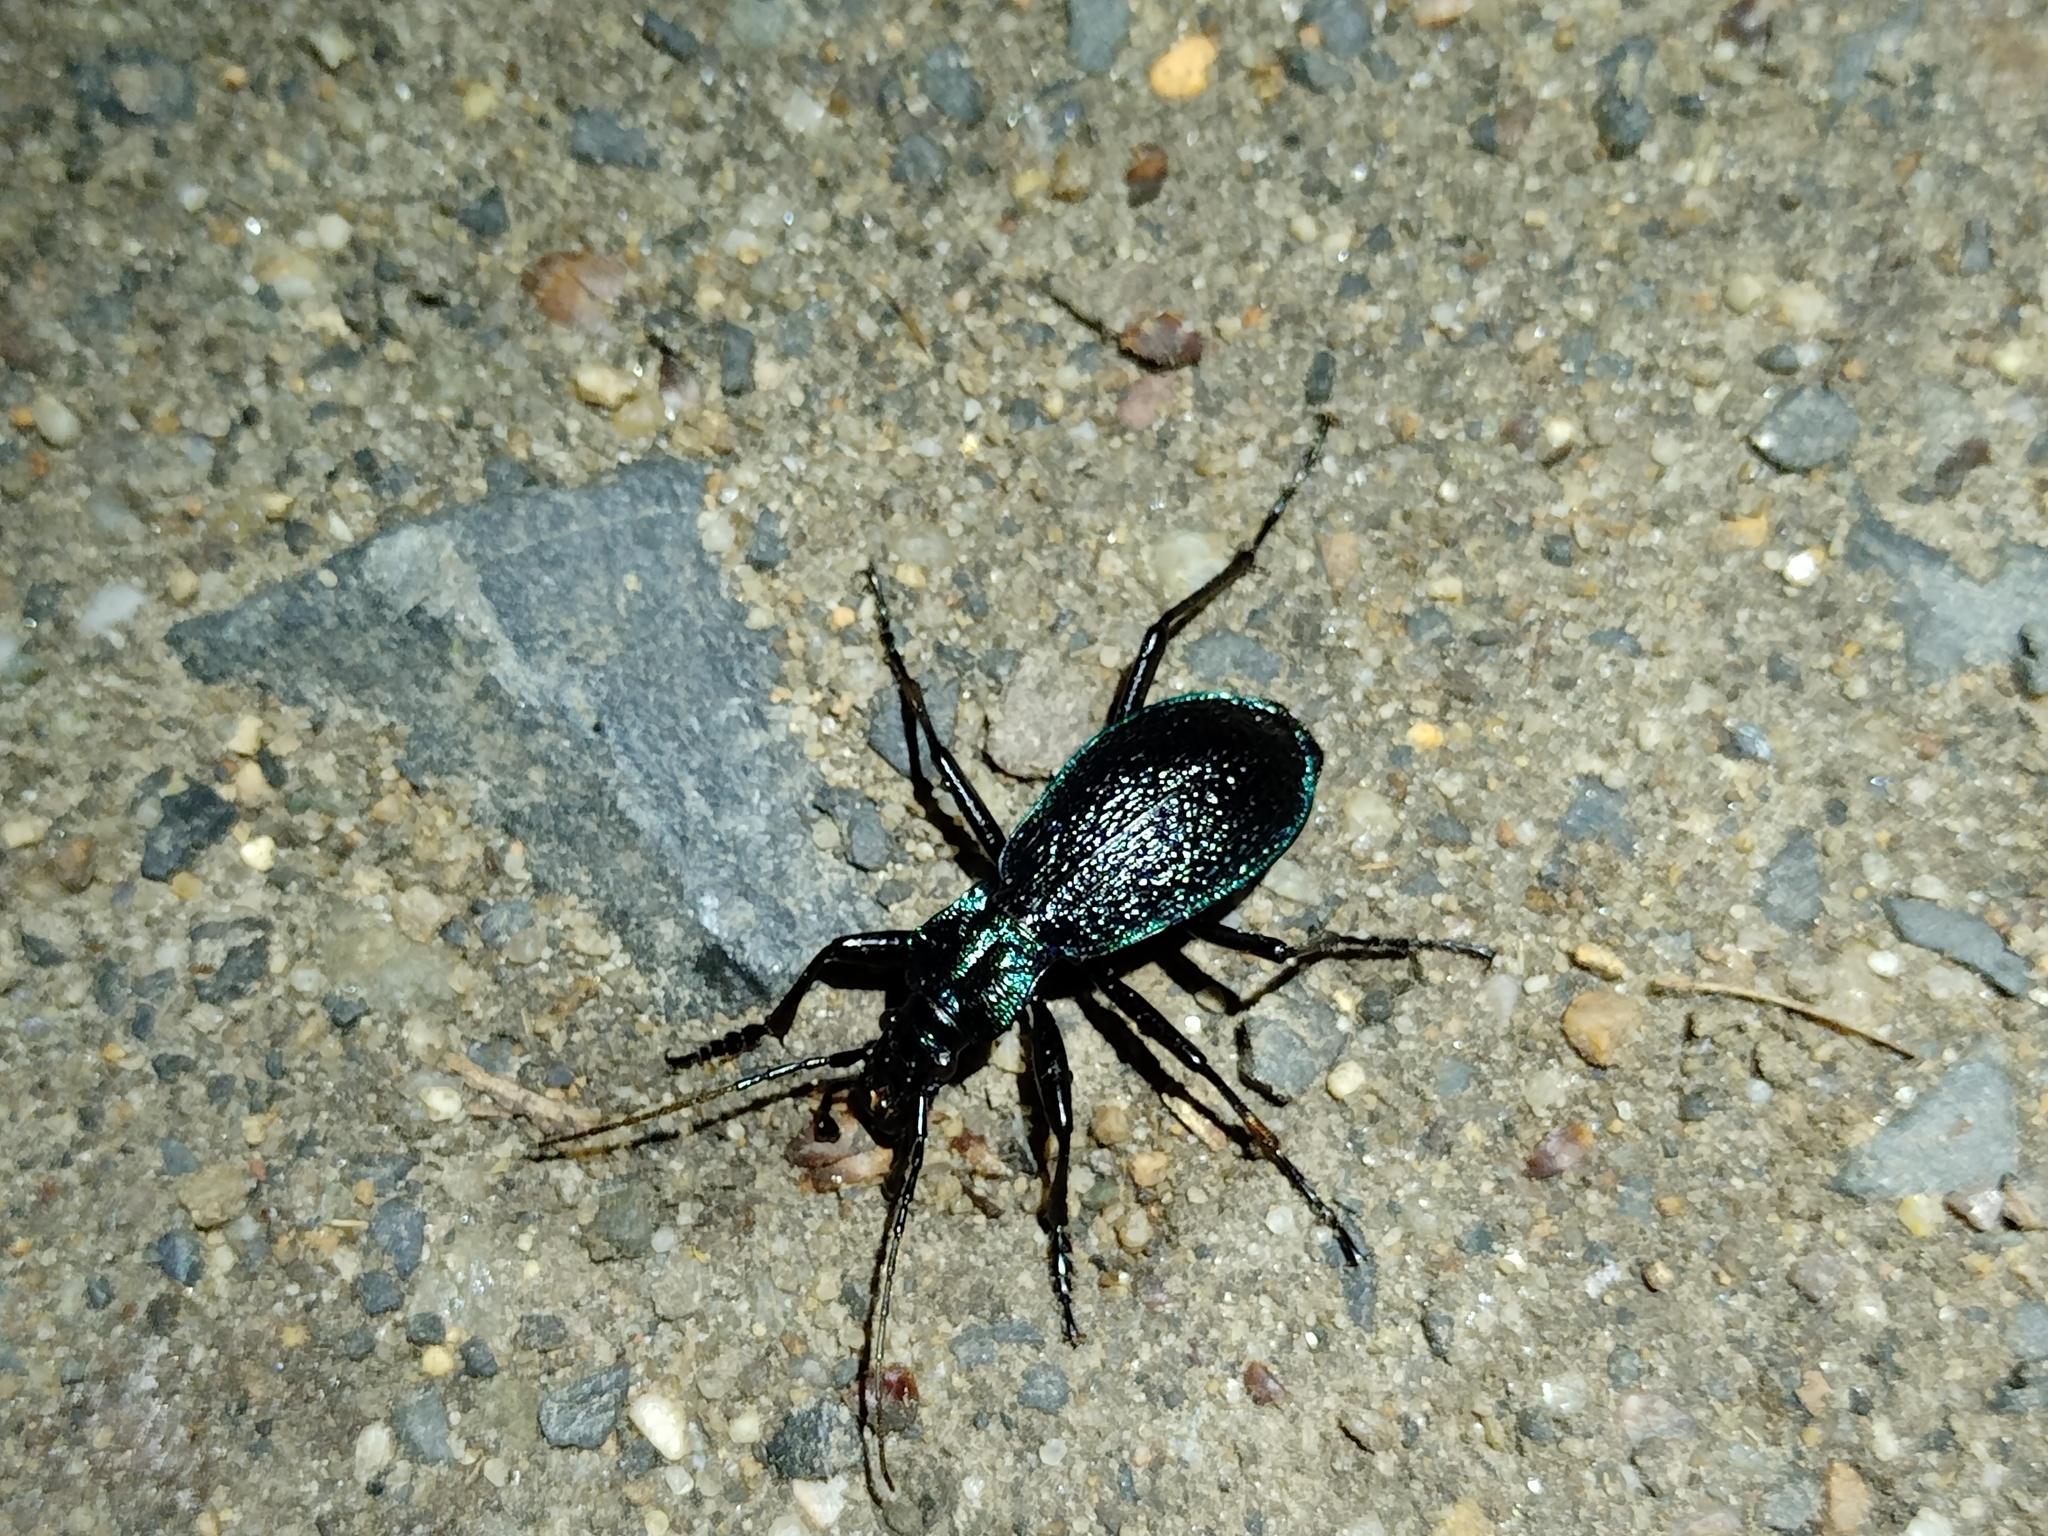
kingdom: Animalia
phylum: Arthropoda
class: Insecta
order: Coleoptera
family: Carabidae
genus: Carabus
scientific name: Carabus intricatus
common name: Blue ground beetle
